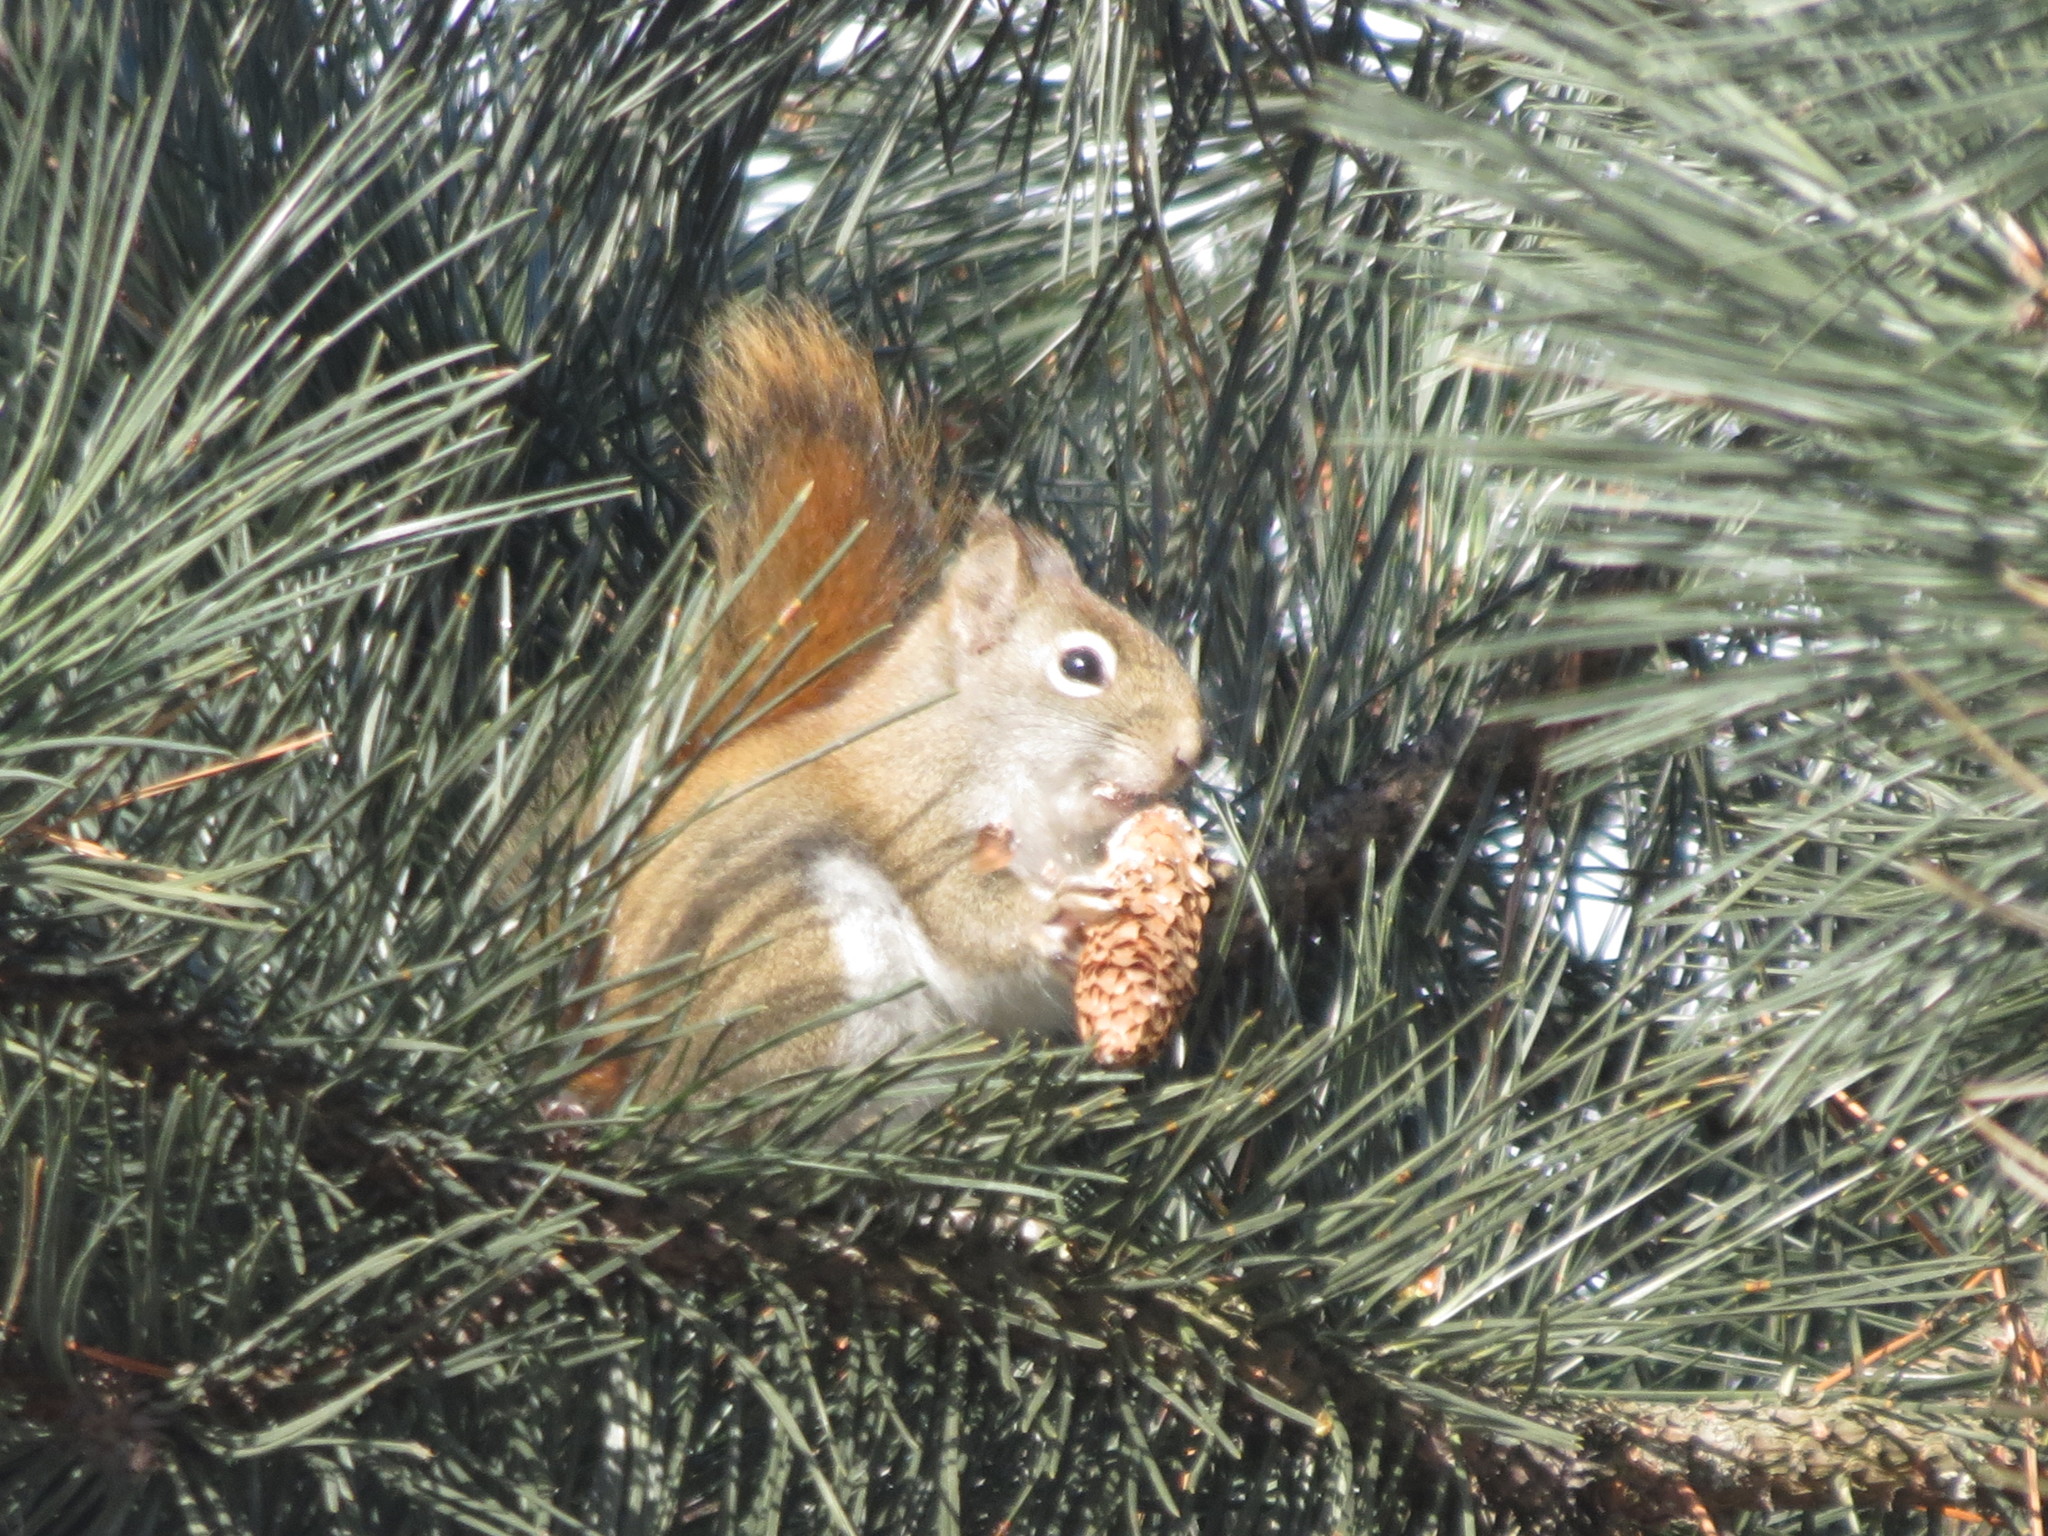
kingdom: Animalia
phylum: Chordata
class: Mammalia
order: Rodentia
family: Sciuridae
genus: Tamiasciurus
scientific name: Tamiasciurus hudsonicus
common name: Red squirrel
